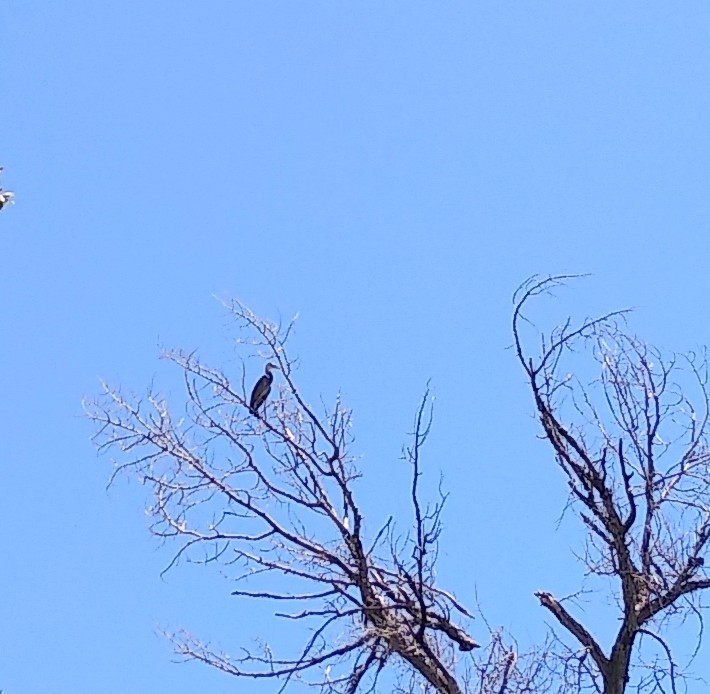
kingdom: Animalia
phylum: Chordata
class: Aves
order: Pelecaniformes
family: Ardeidae
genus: Ardea
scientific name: Ardea herodias
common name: Great blue heron
